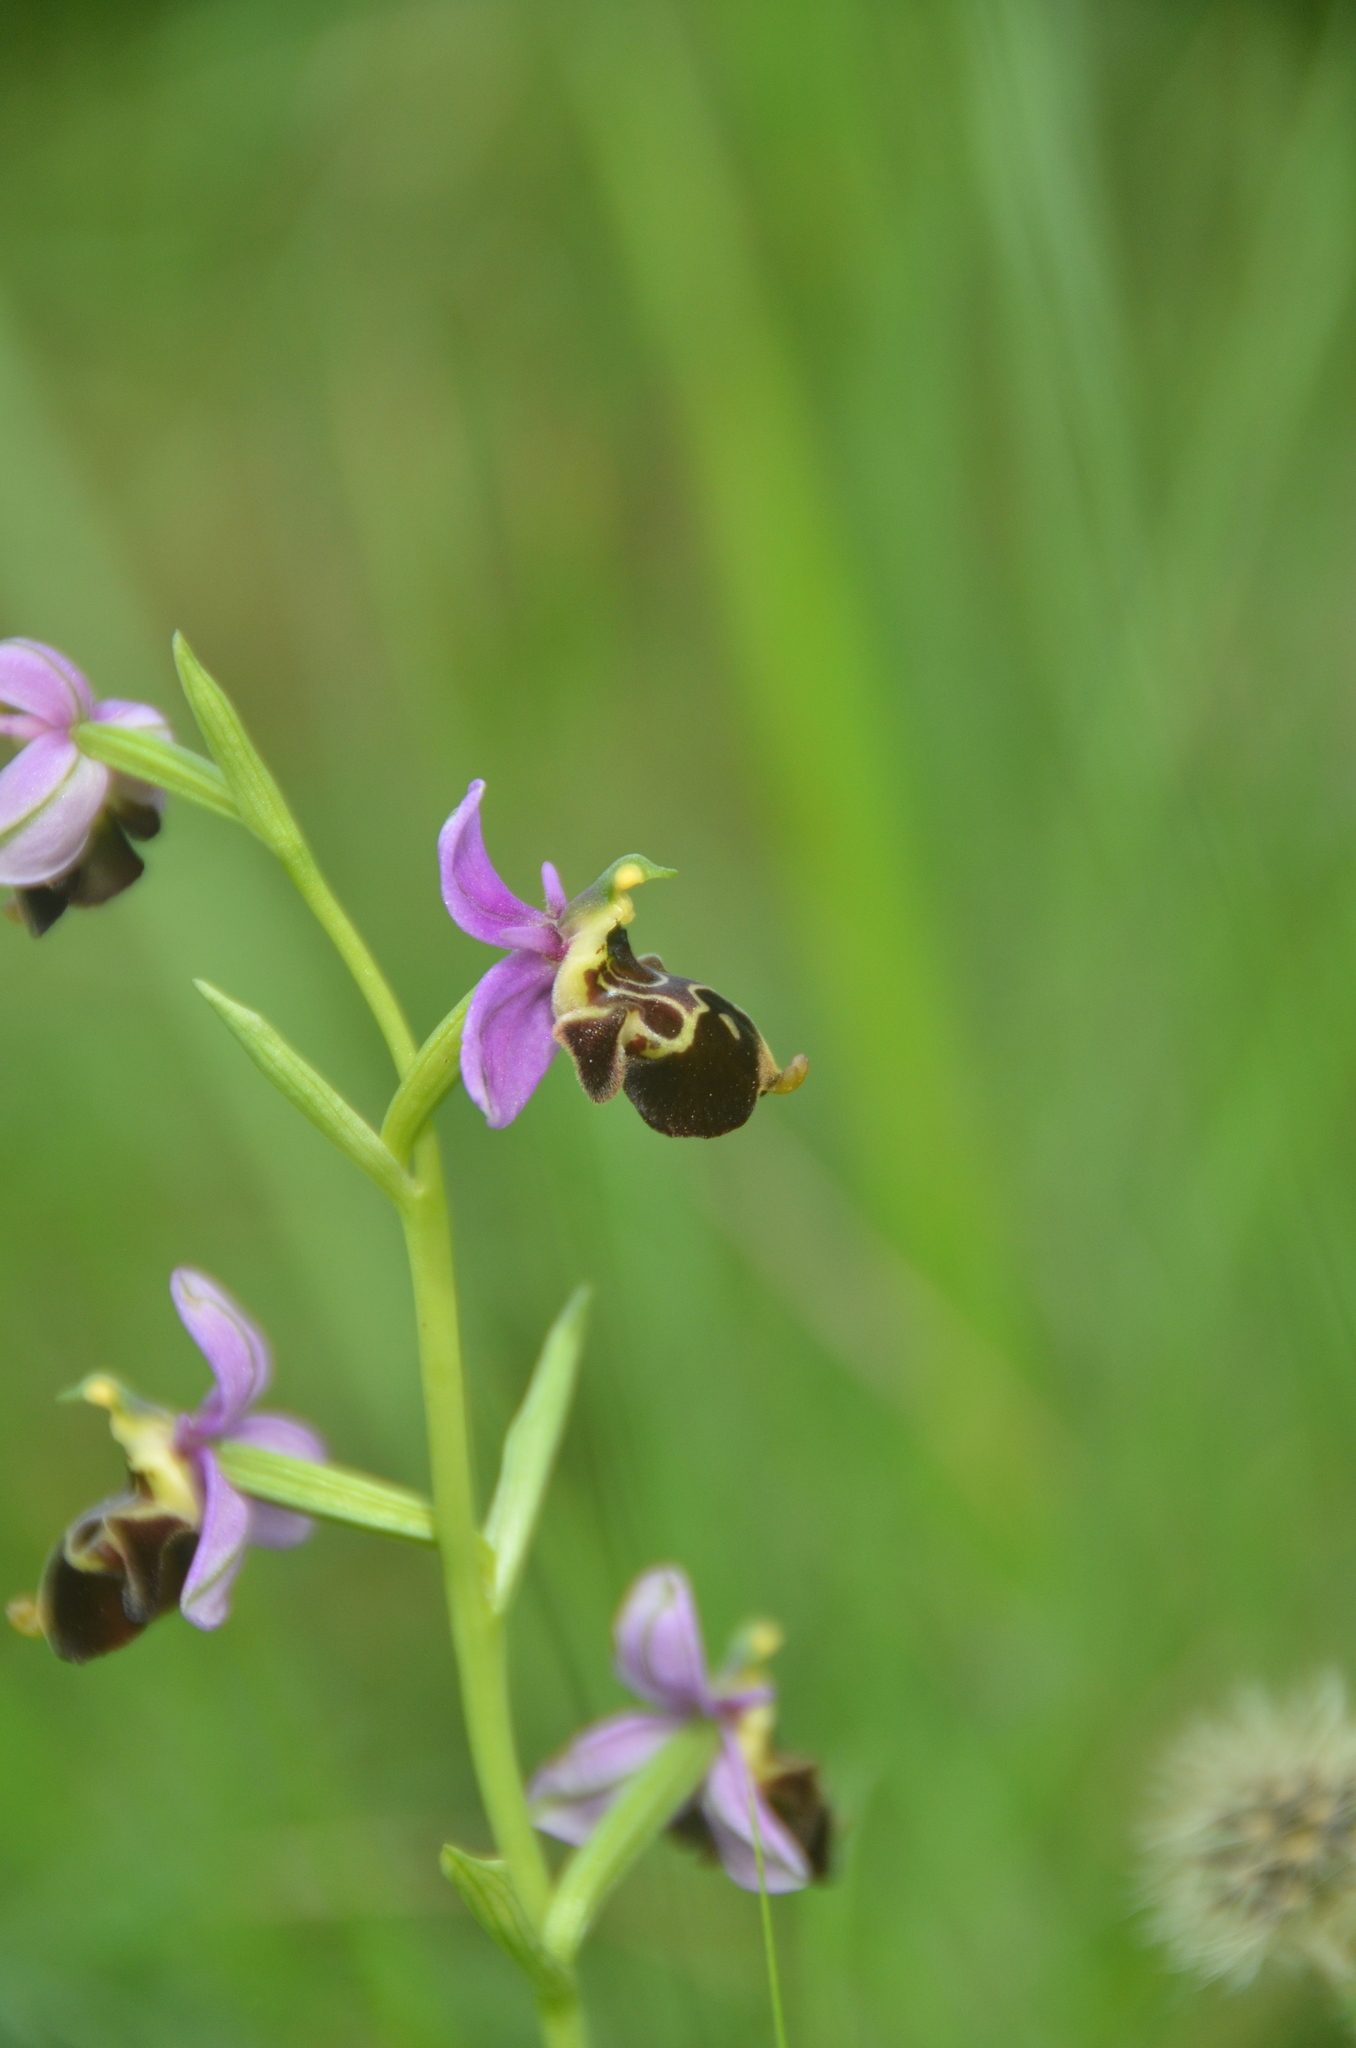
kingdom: Plantae
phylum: Tracheophyta
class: Liliopsida
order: Asparagales
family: Orchidaceae
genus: Ophrys
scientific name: Ophrys scolopax
